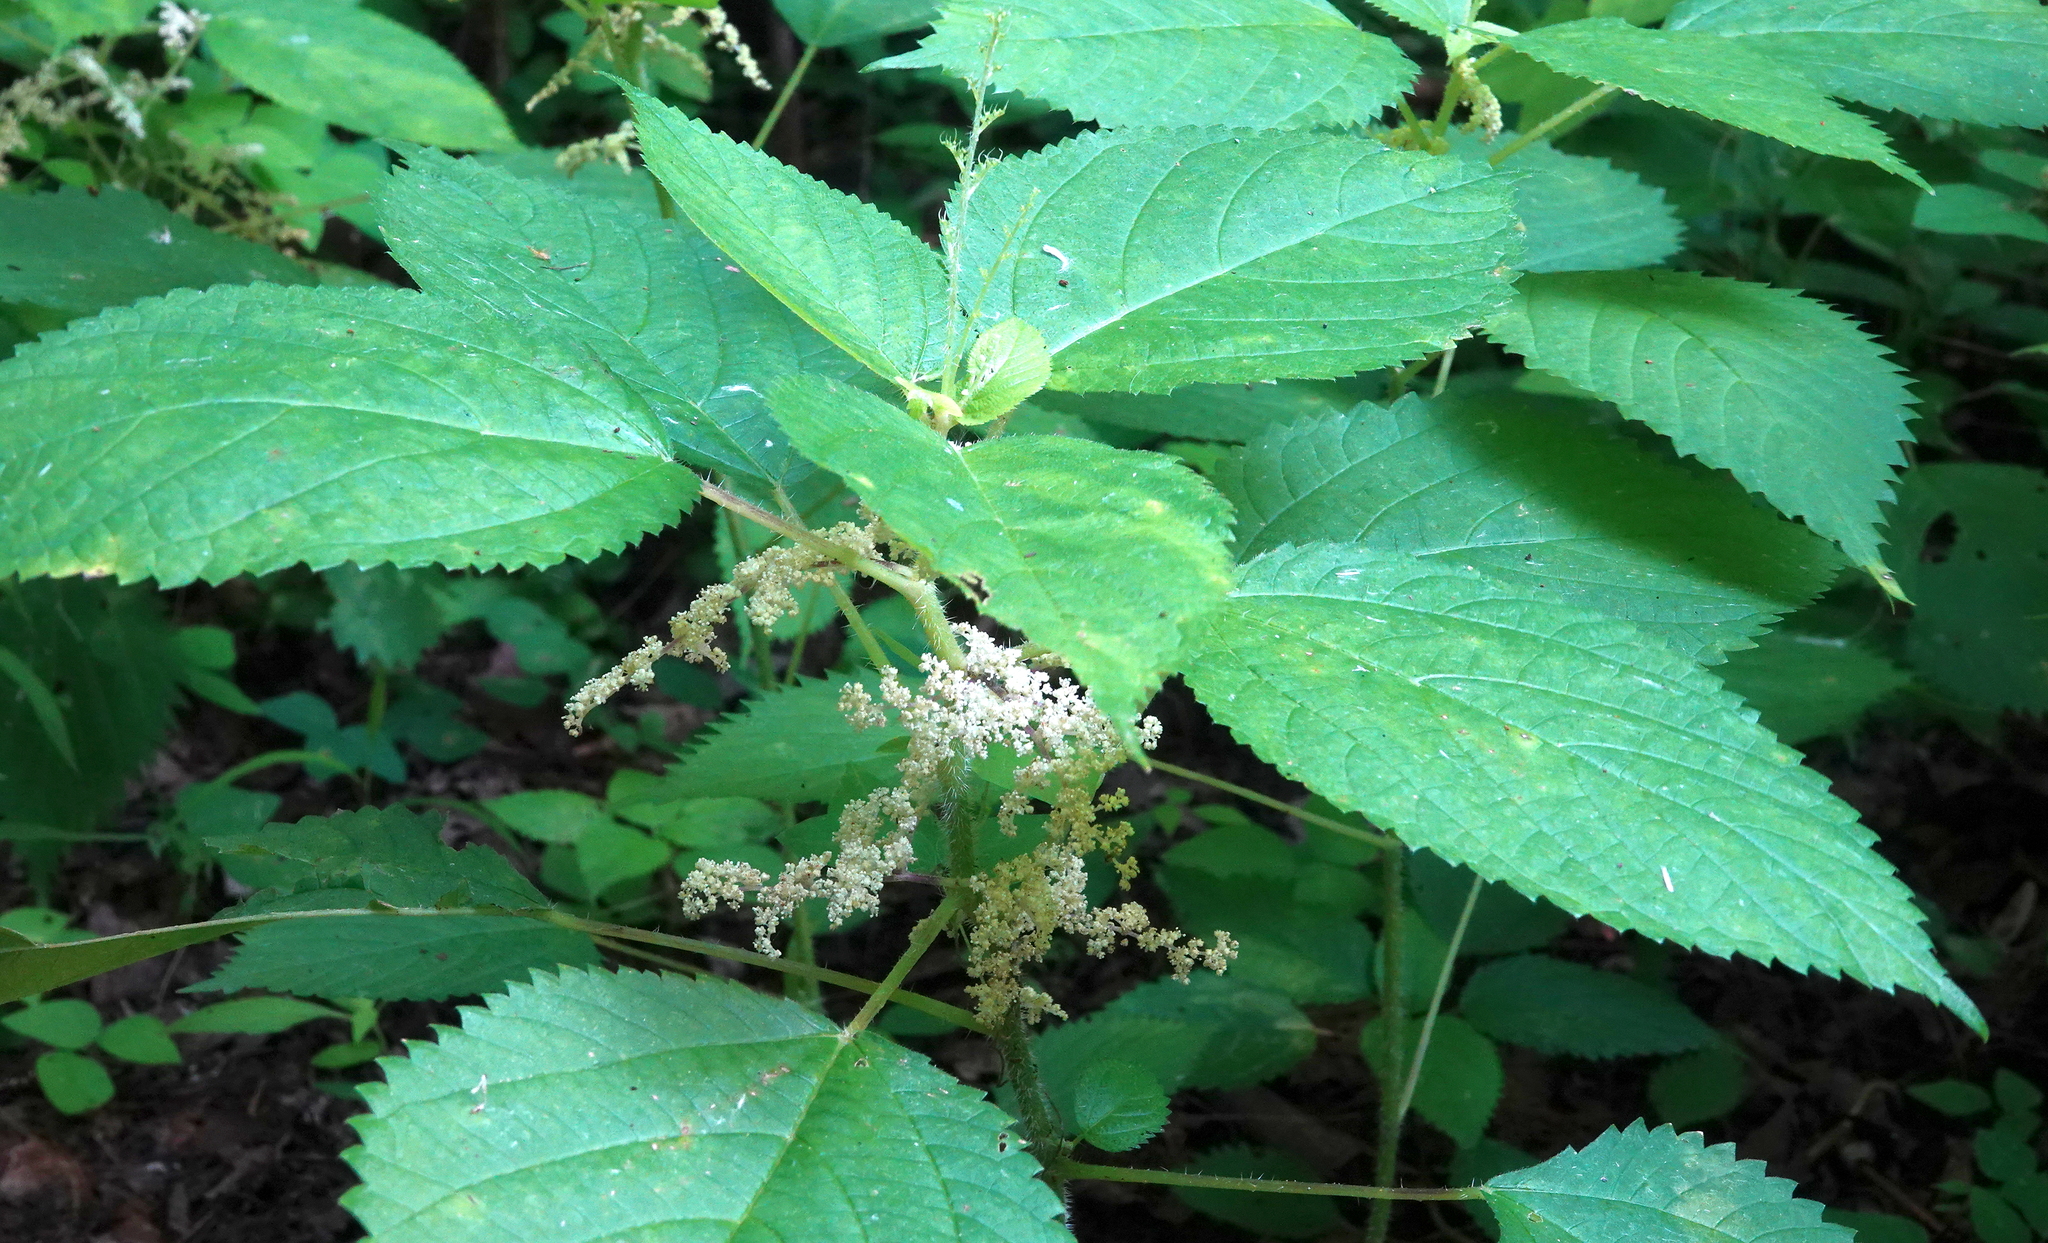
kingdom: Plantae
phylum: Tracheophyta
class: Magnoliopsida
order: Rosales
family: Urticaceae
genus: Laportea
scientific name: Laportea canadensis
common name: Canada nettle
